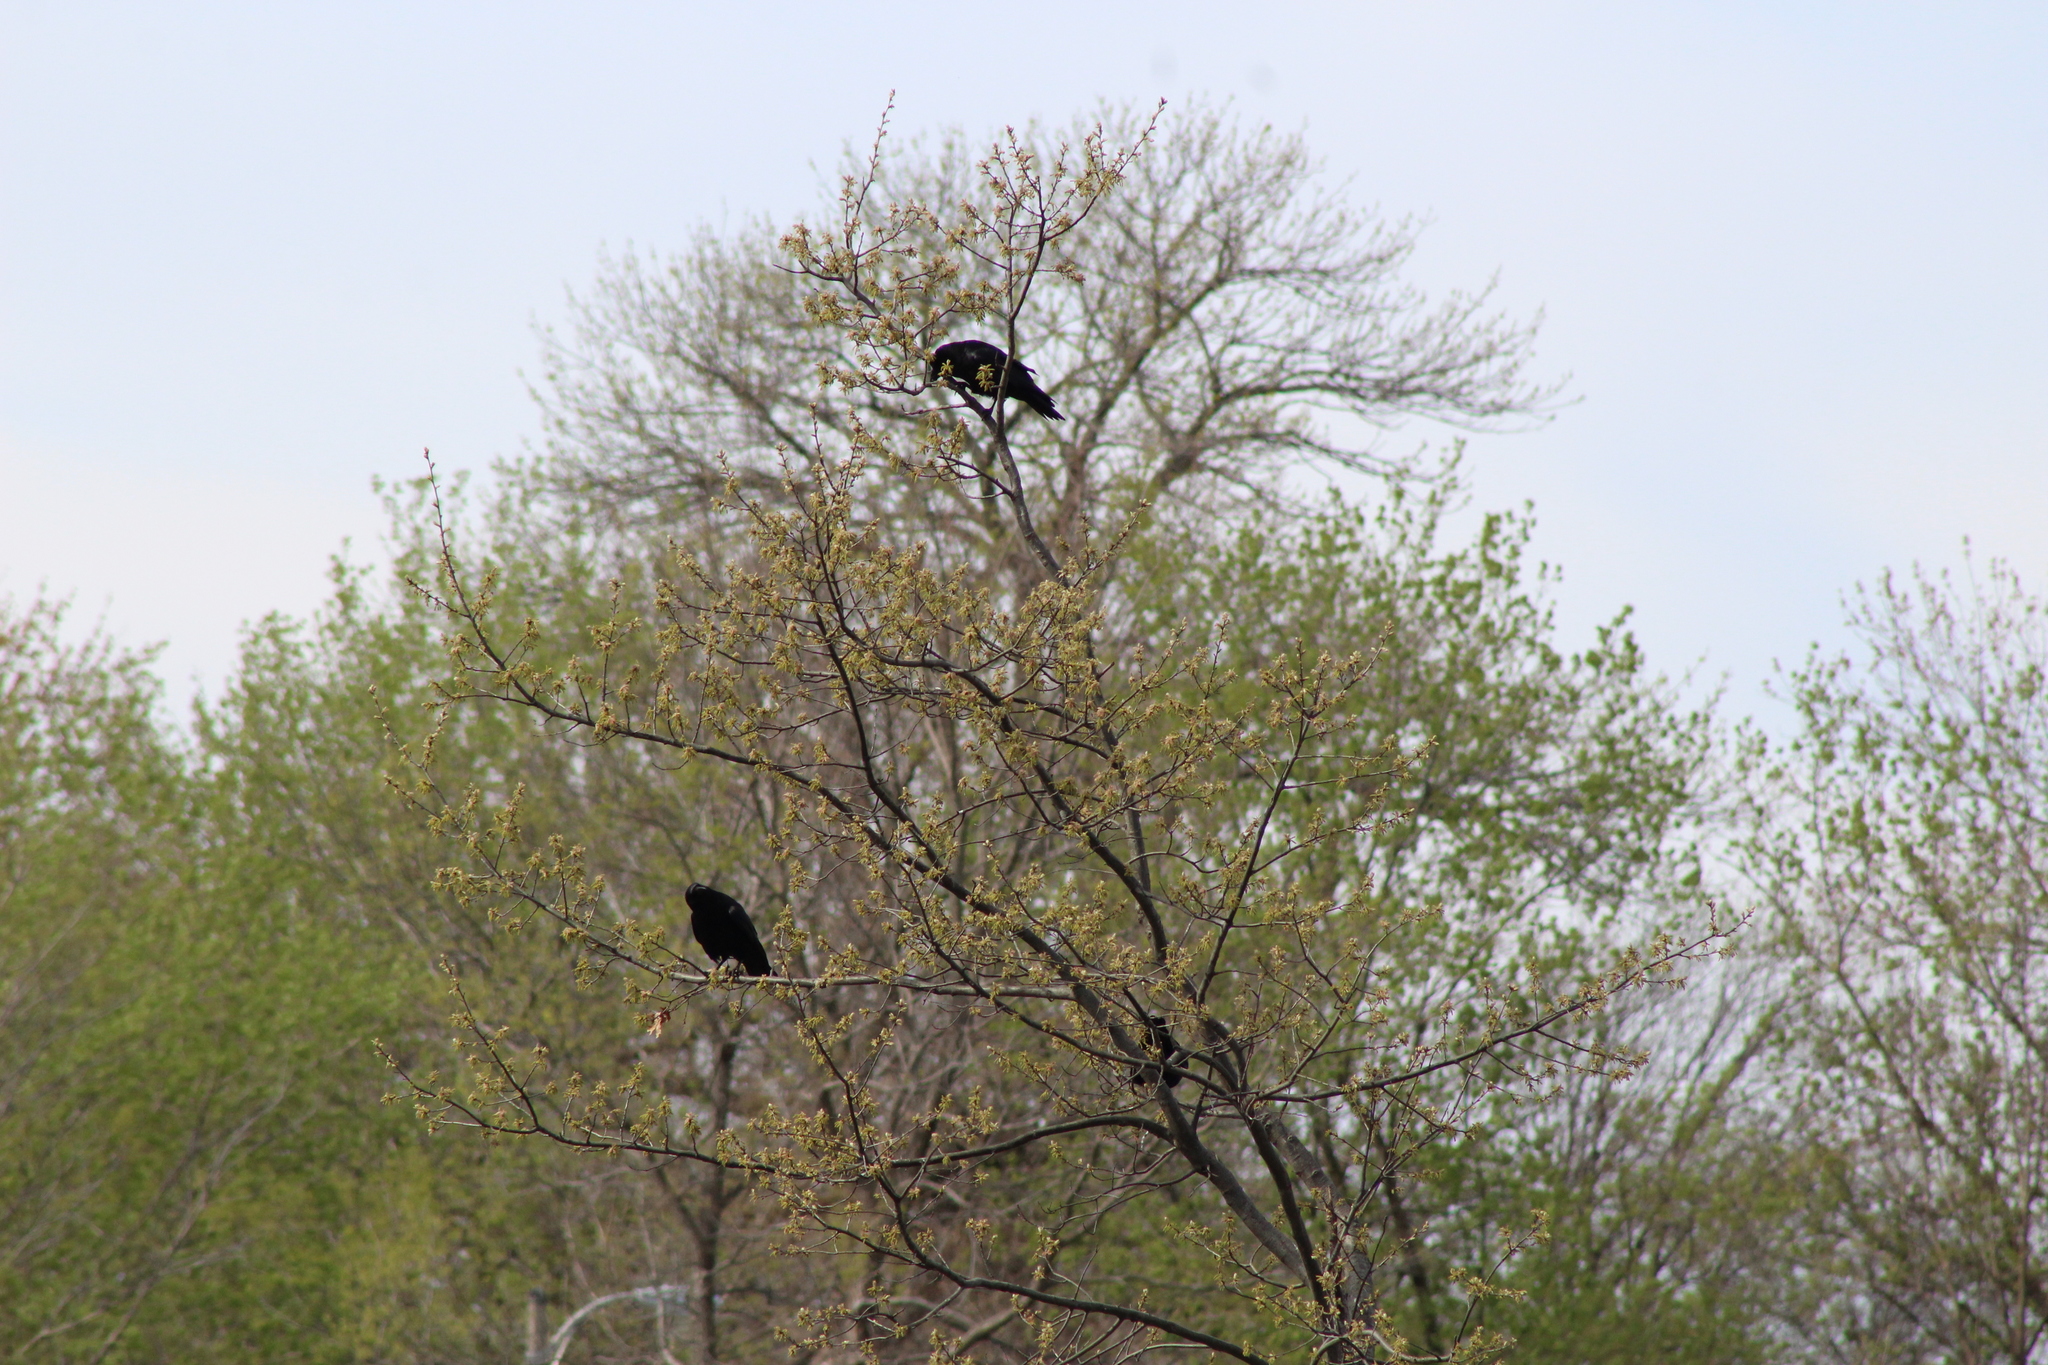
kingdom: Animalia
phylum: Chordata
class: Aves
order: Passeriformes
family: Corvidae
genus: Corvus
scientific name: Corvus brachyrhynchos
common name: American crow
